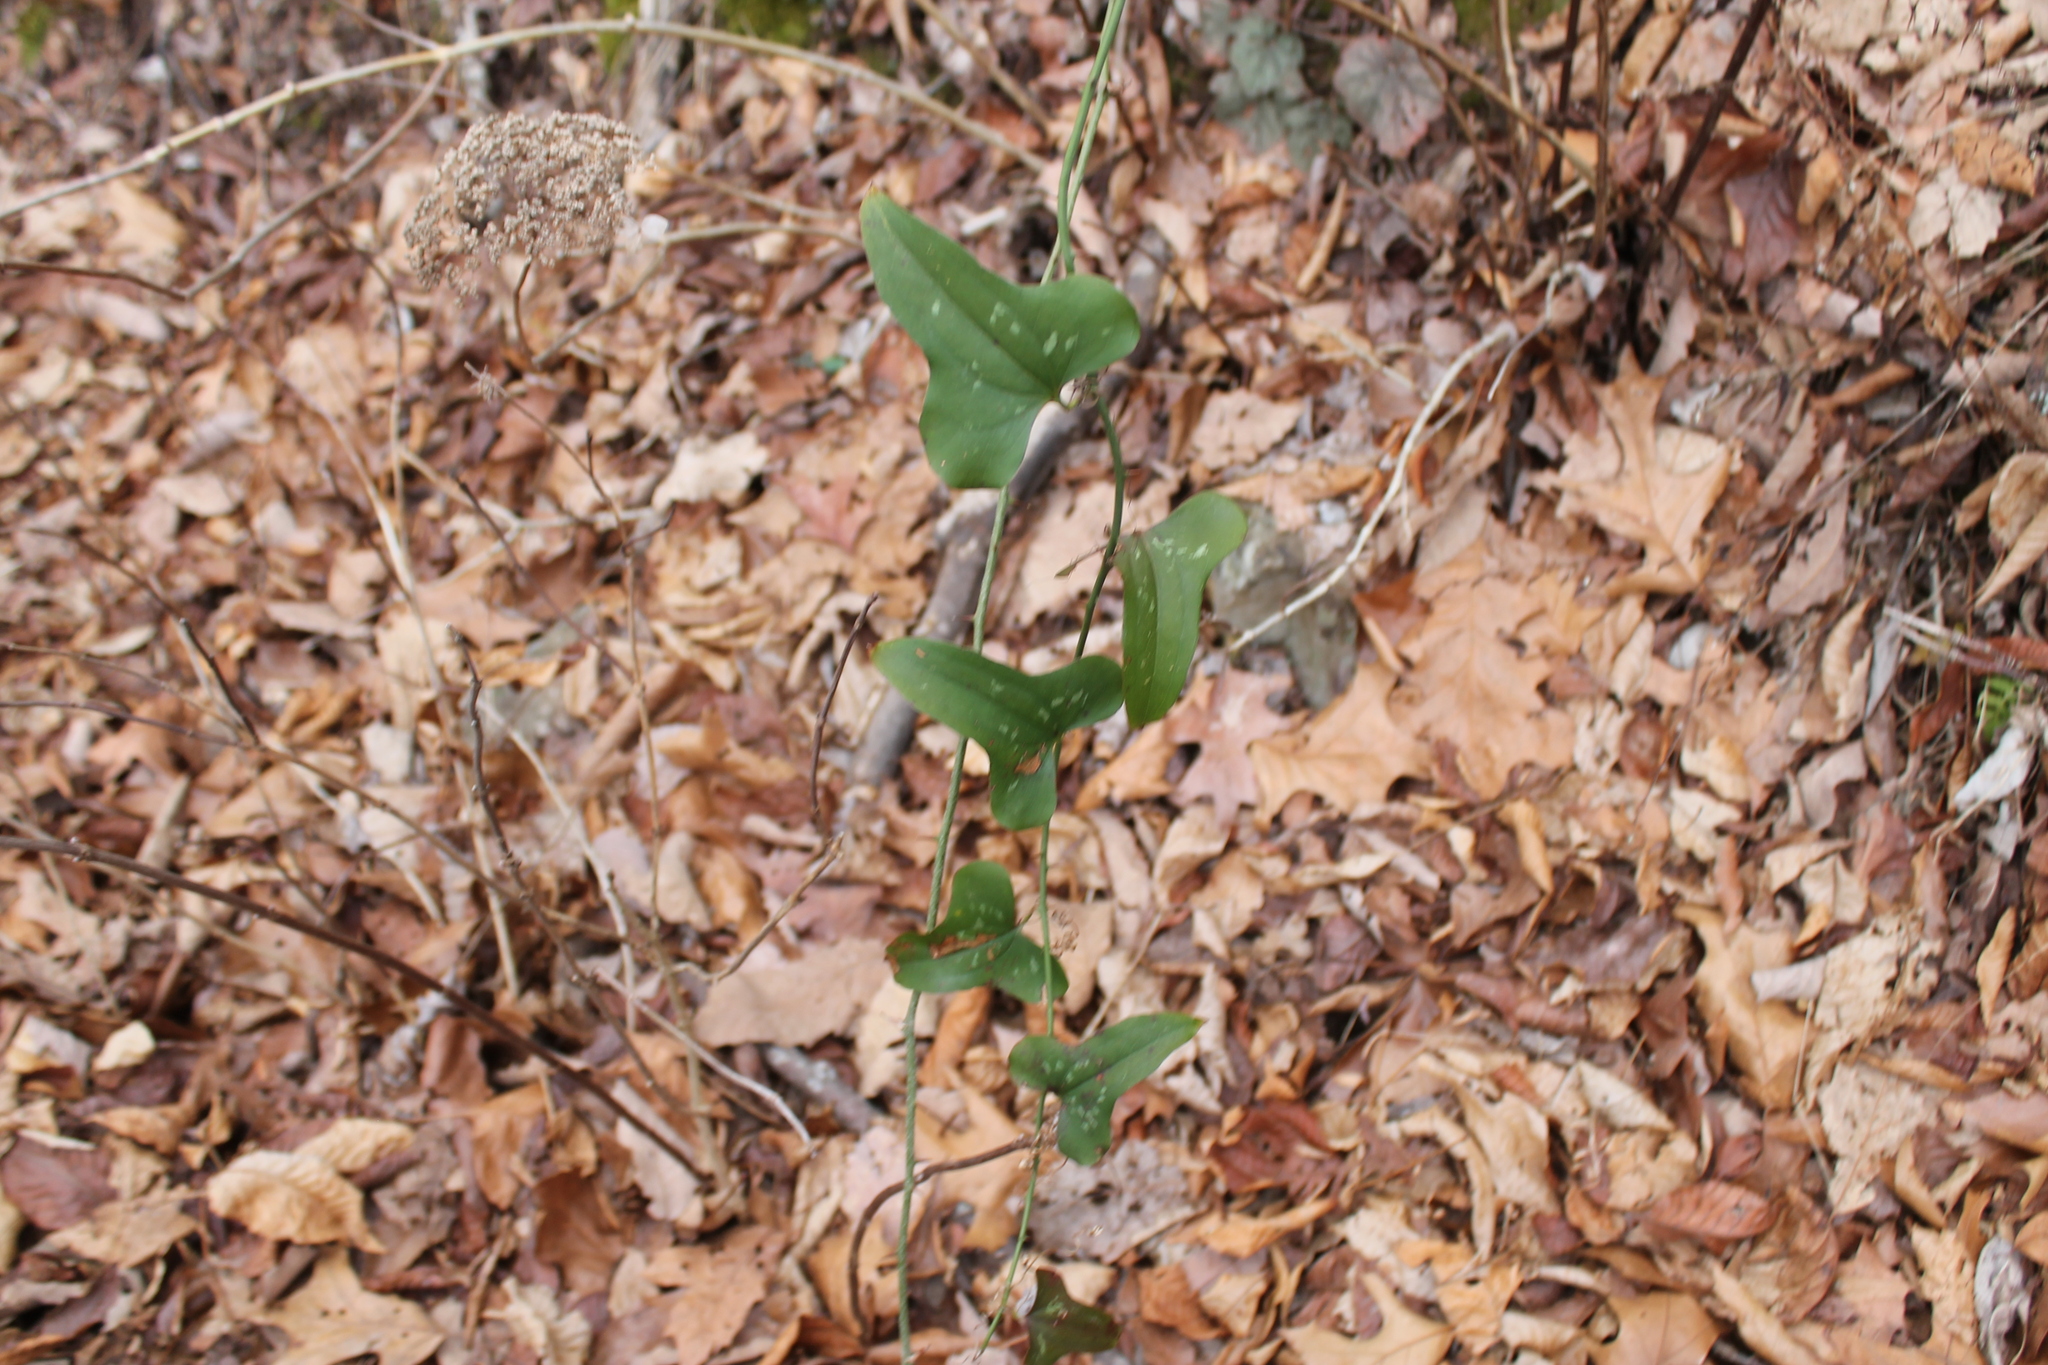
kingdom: Plantae
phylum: Tracheophyta
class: Liliopsida
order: Liliales
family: Smilacaceae
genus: Smilax
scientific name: Smilax bona-nox
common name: Catbrier
